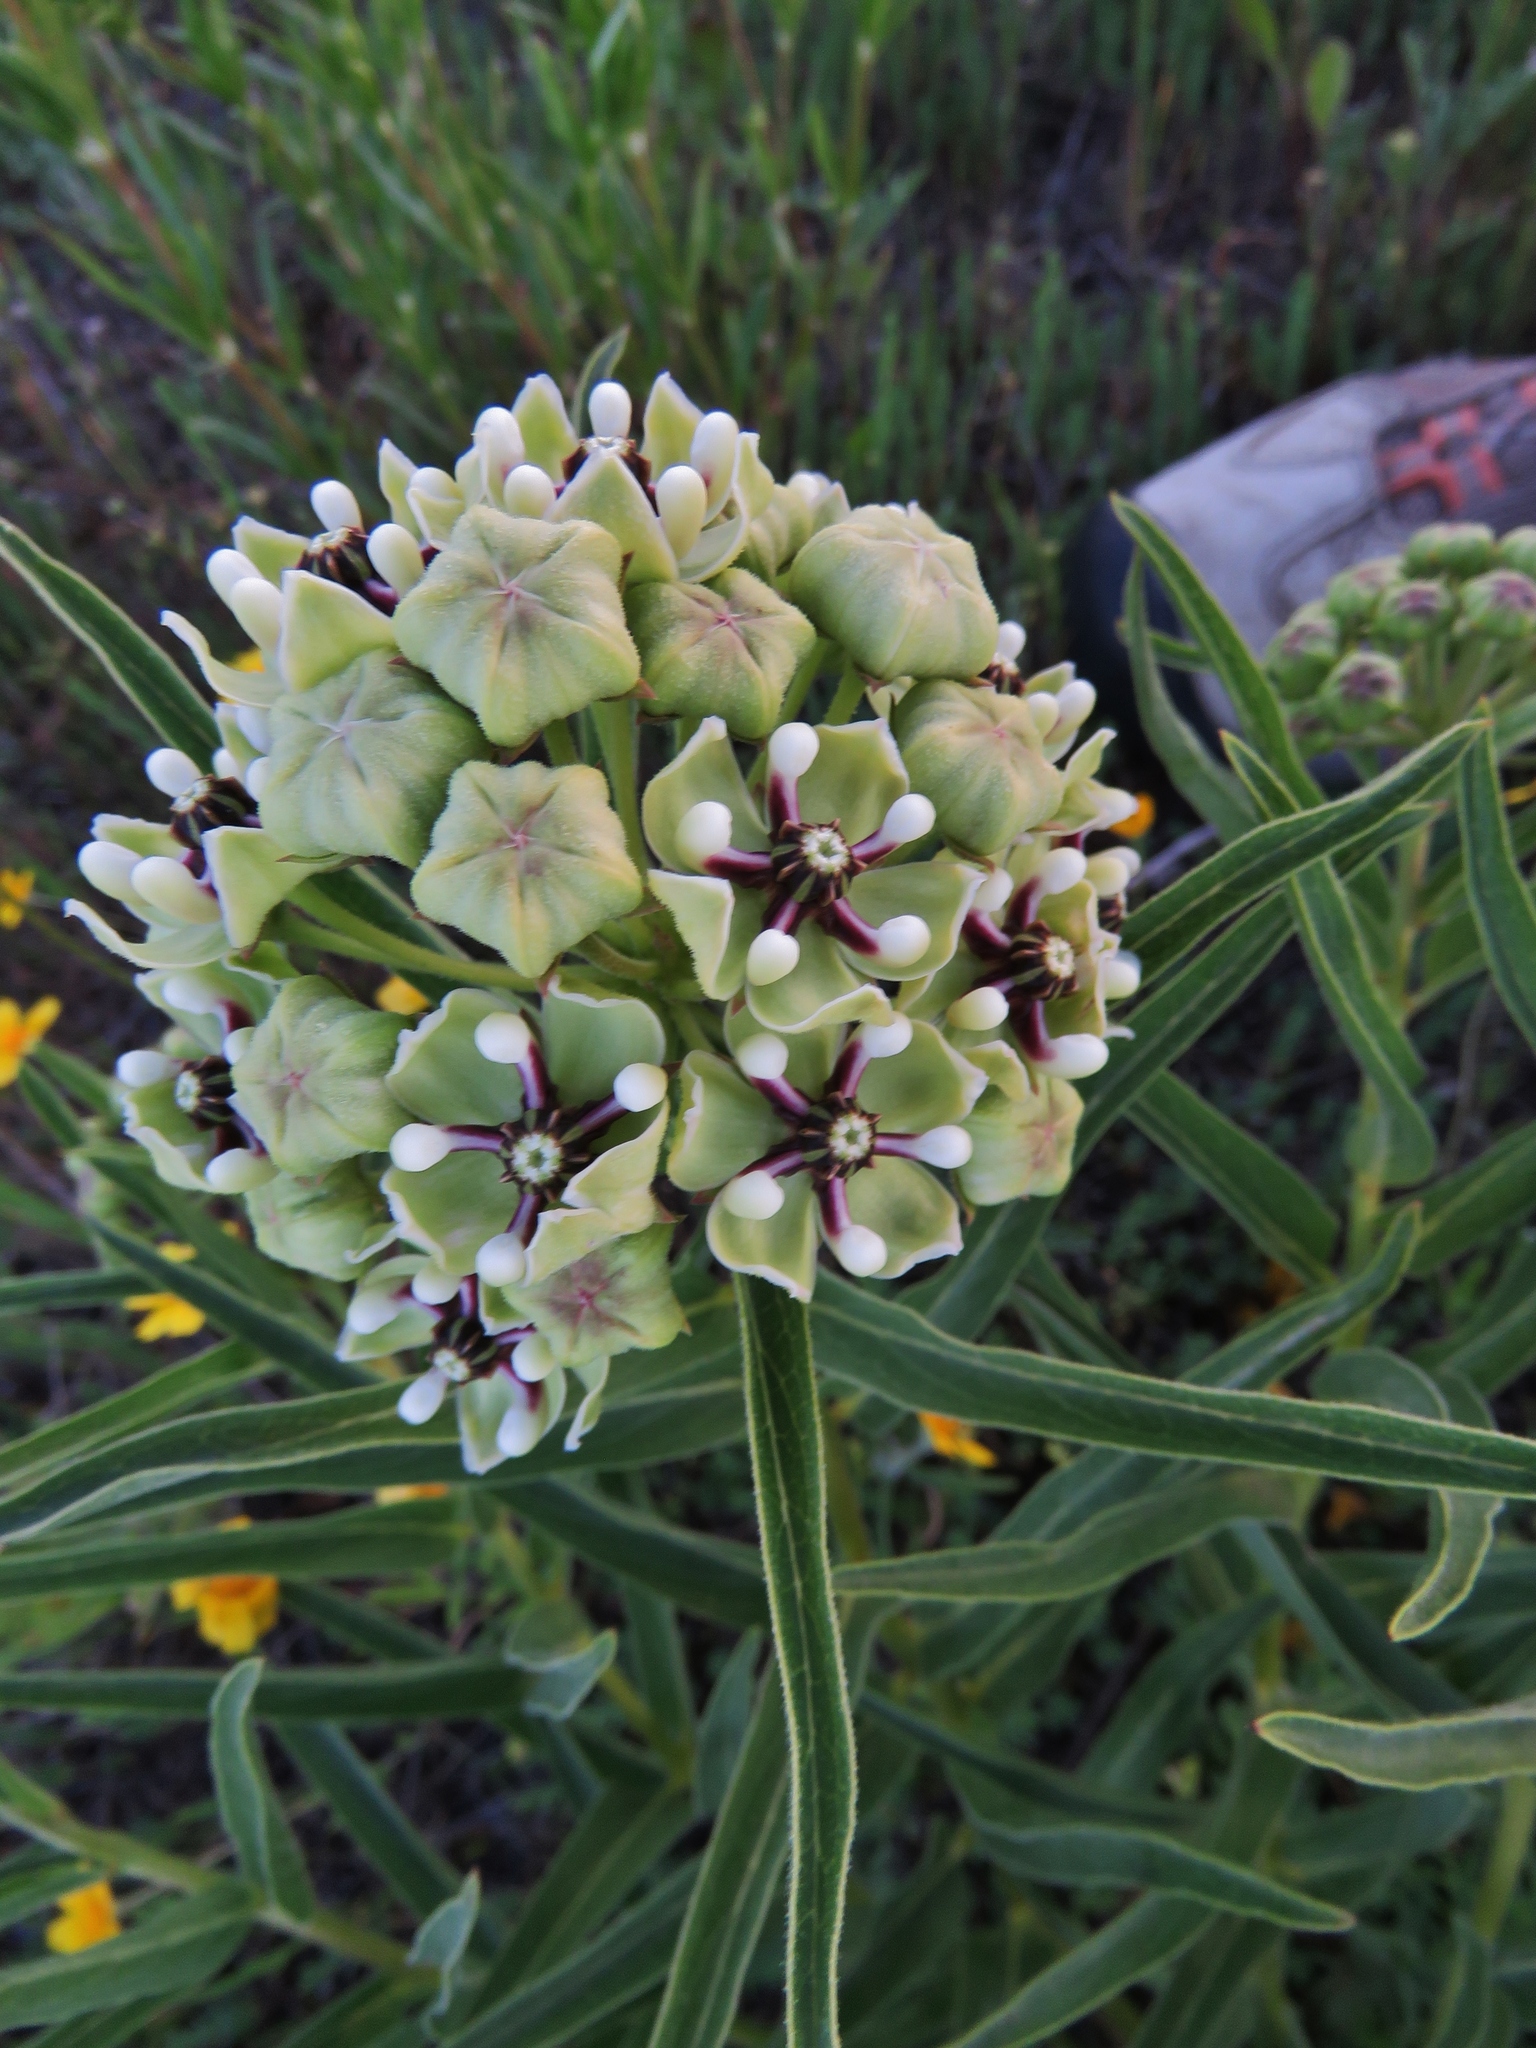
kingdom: Plantae
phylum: Tracheophyta
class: Magnoliopsida
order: Gentianales
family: Apocynaceae
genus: Asclepias
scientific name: Asclepias asperula
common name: Antelope horns
